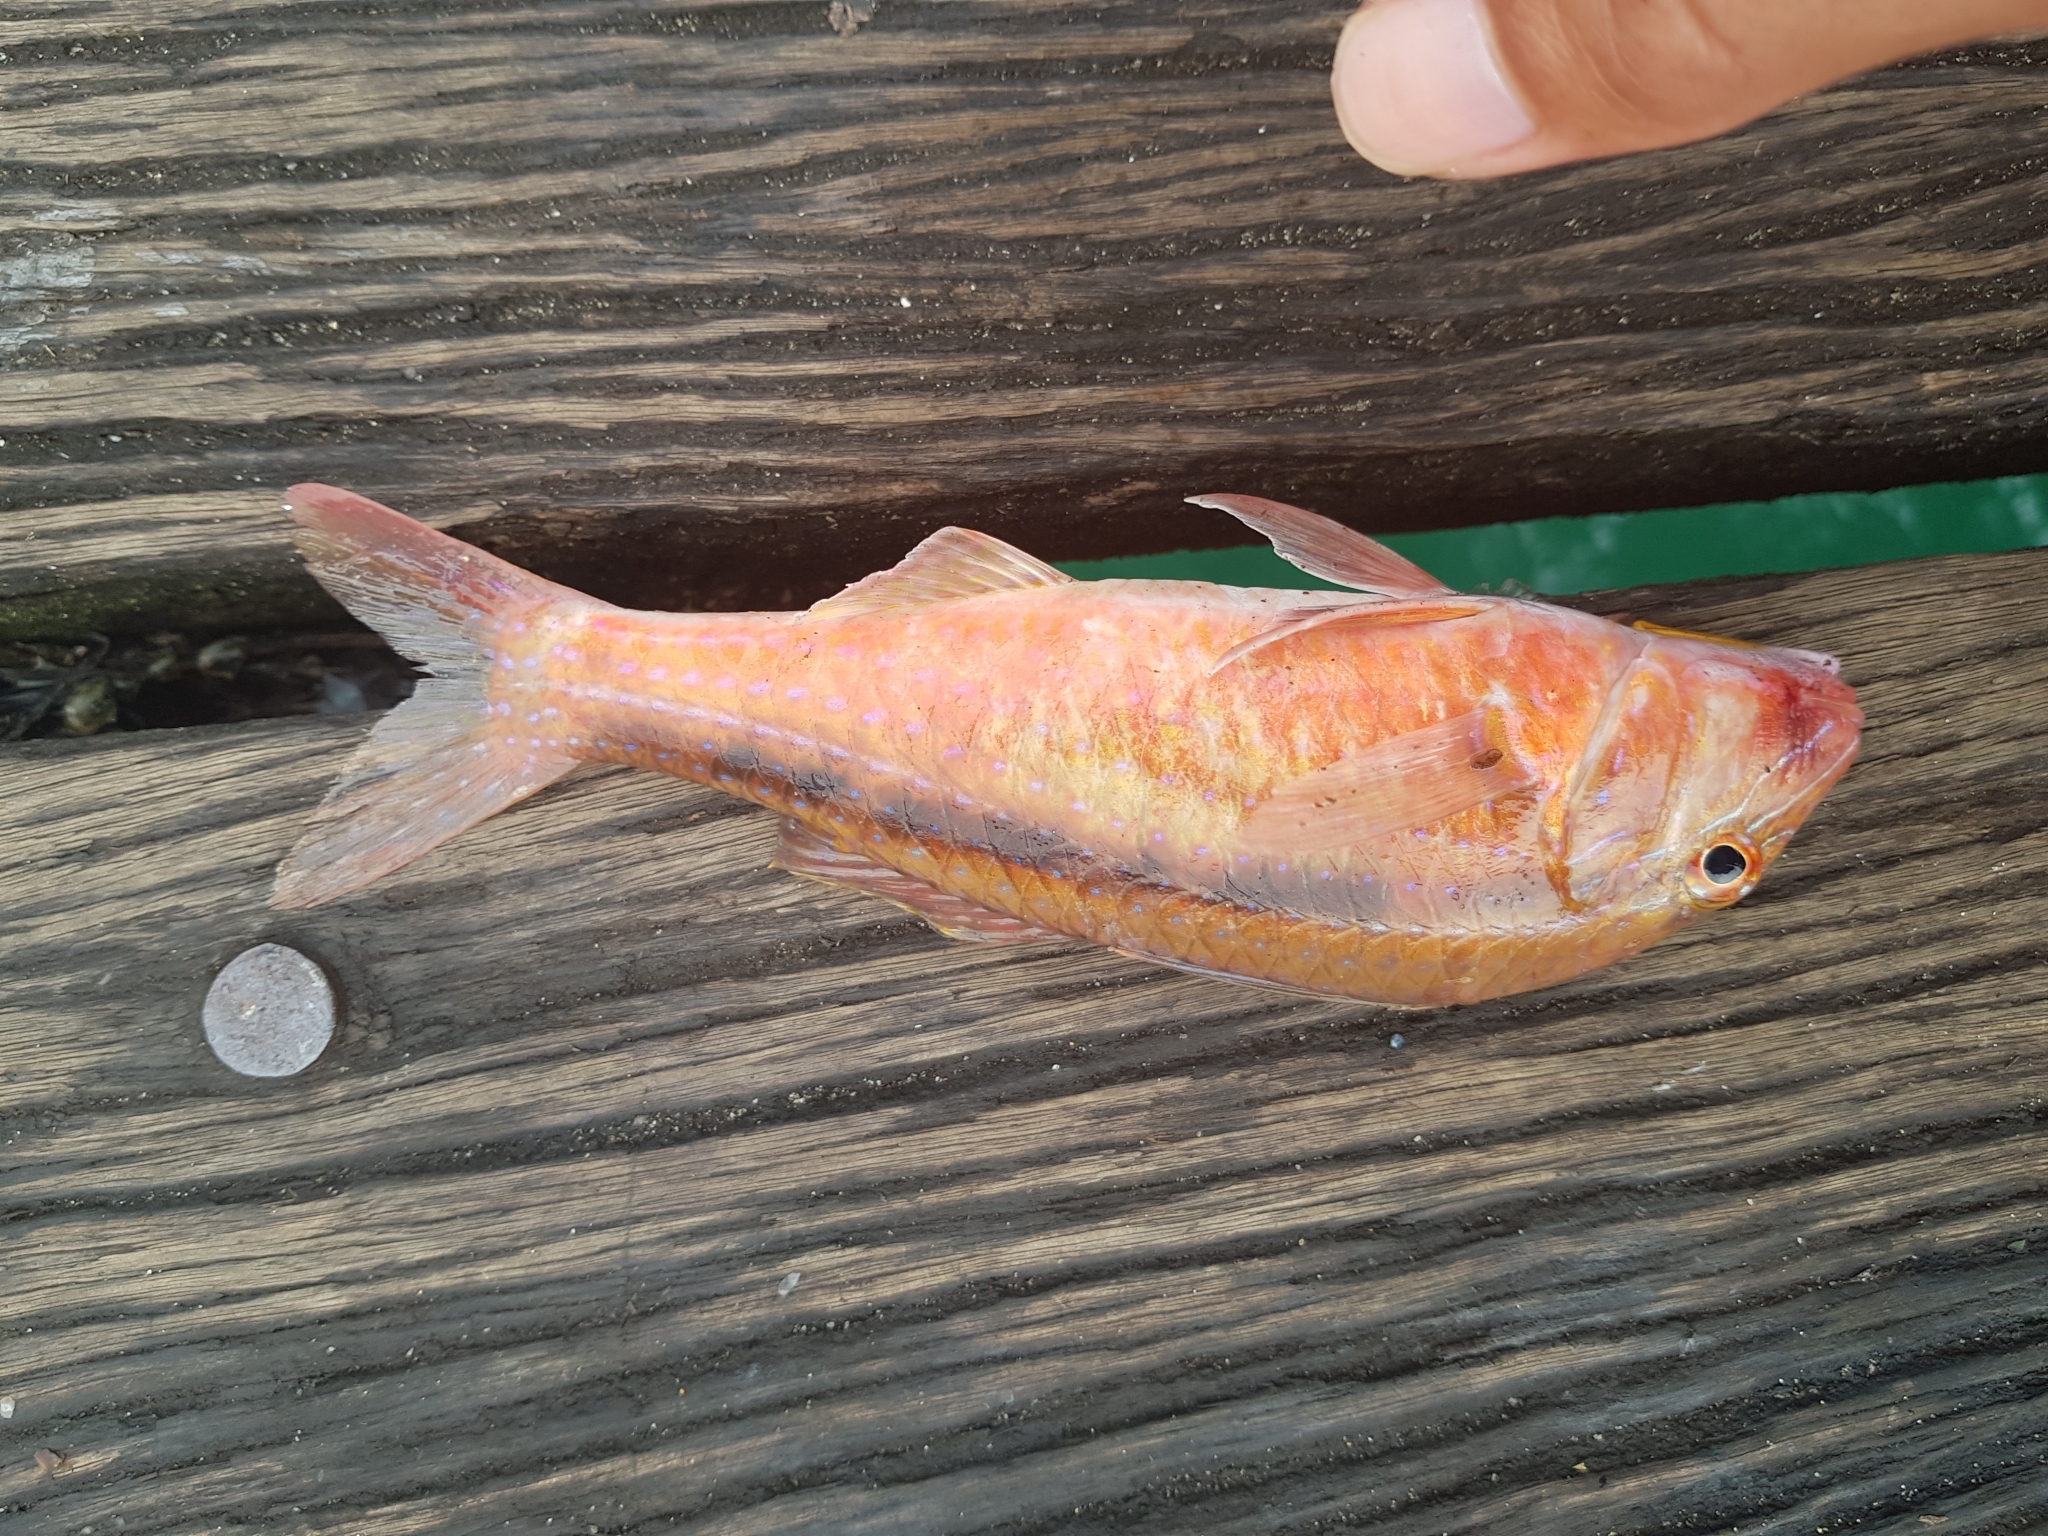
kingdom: Animalia
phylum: Chordata
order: Perciformes
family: Mullidae
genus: Upeneichthys
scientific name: Upeneichthys vlamingii
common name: Red mullet
